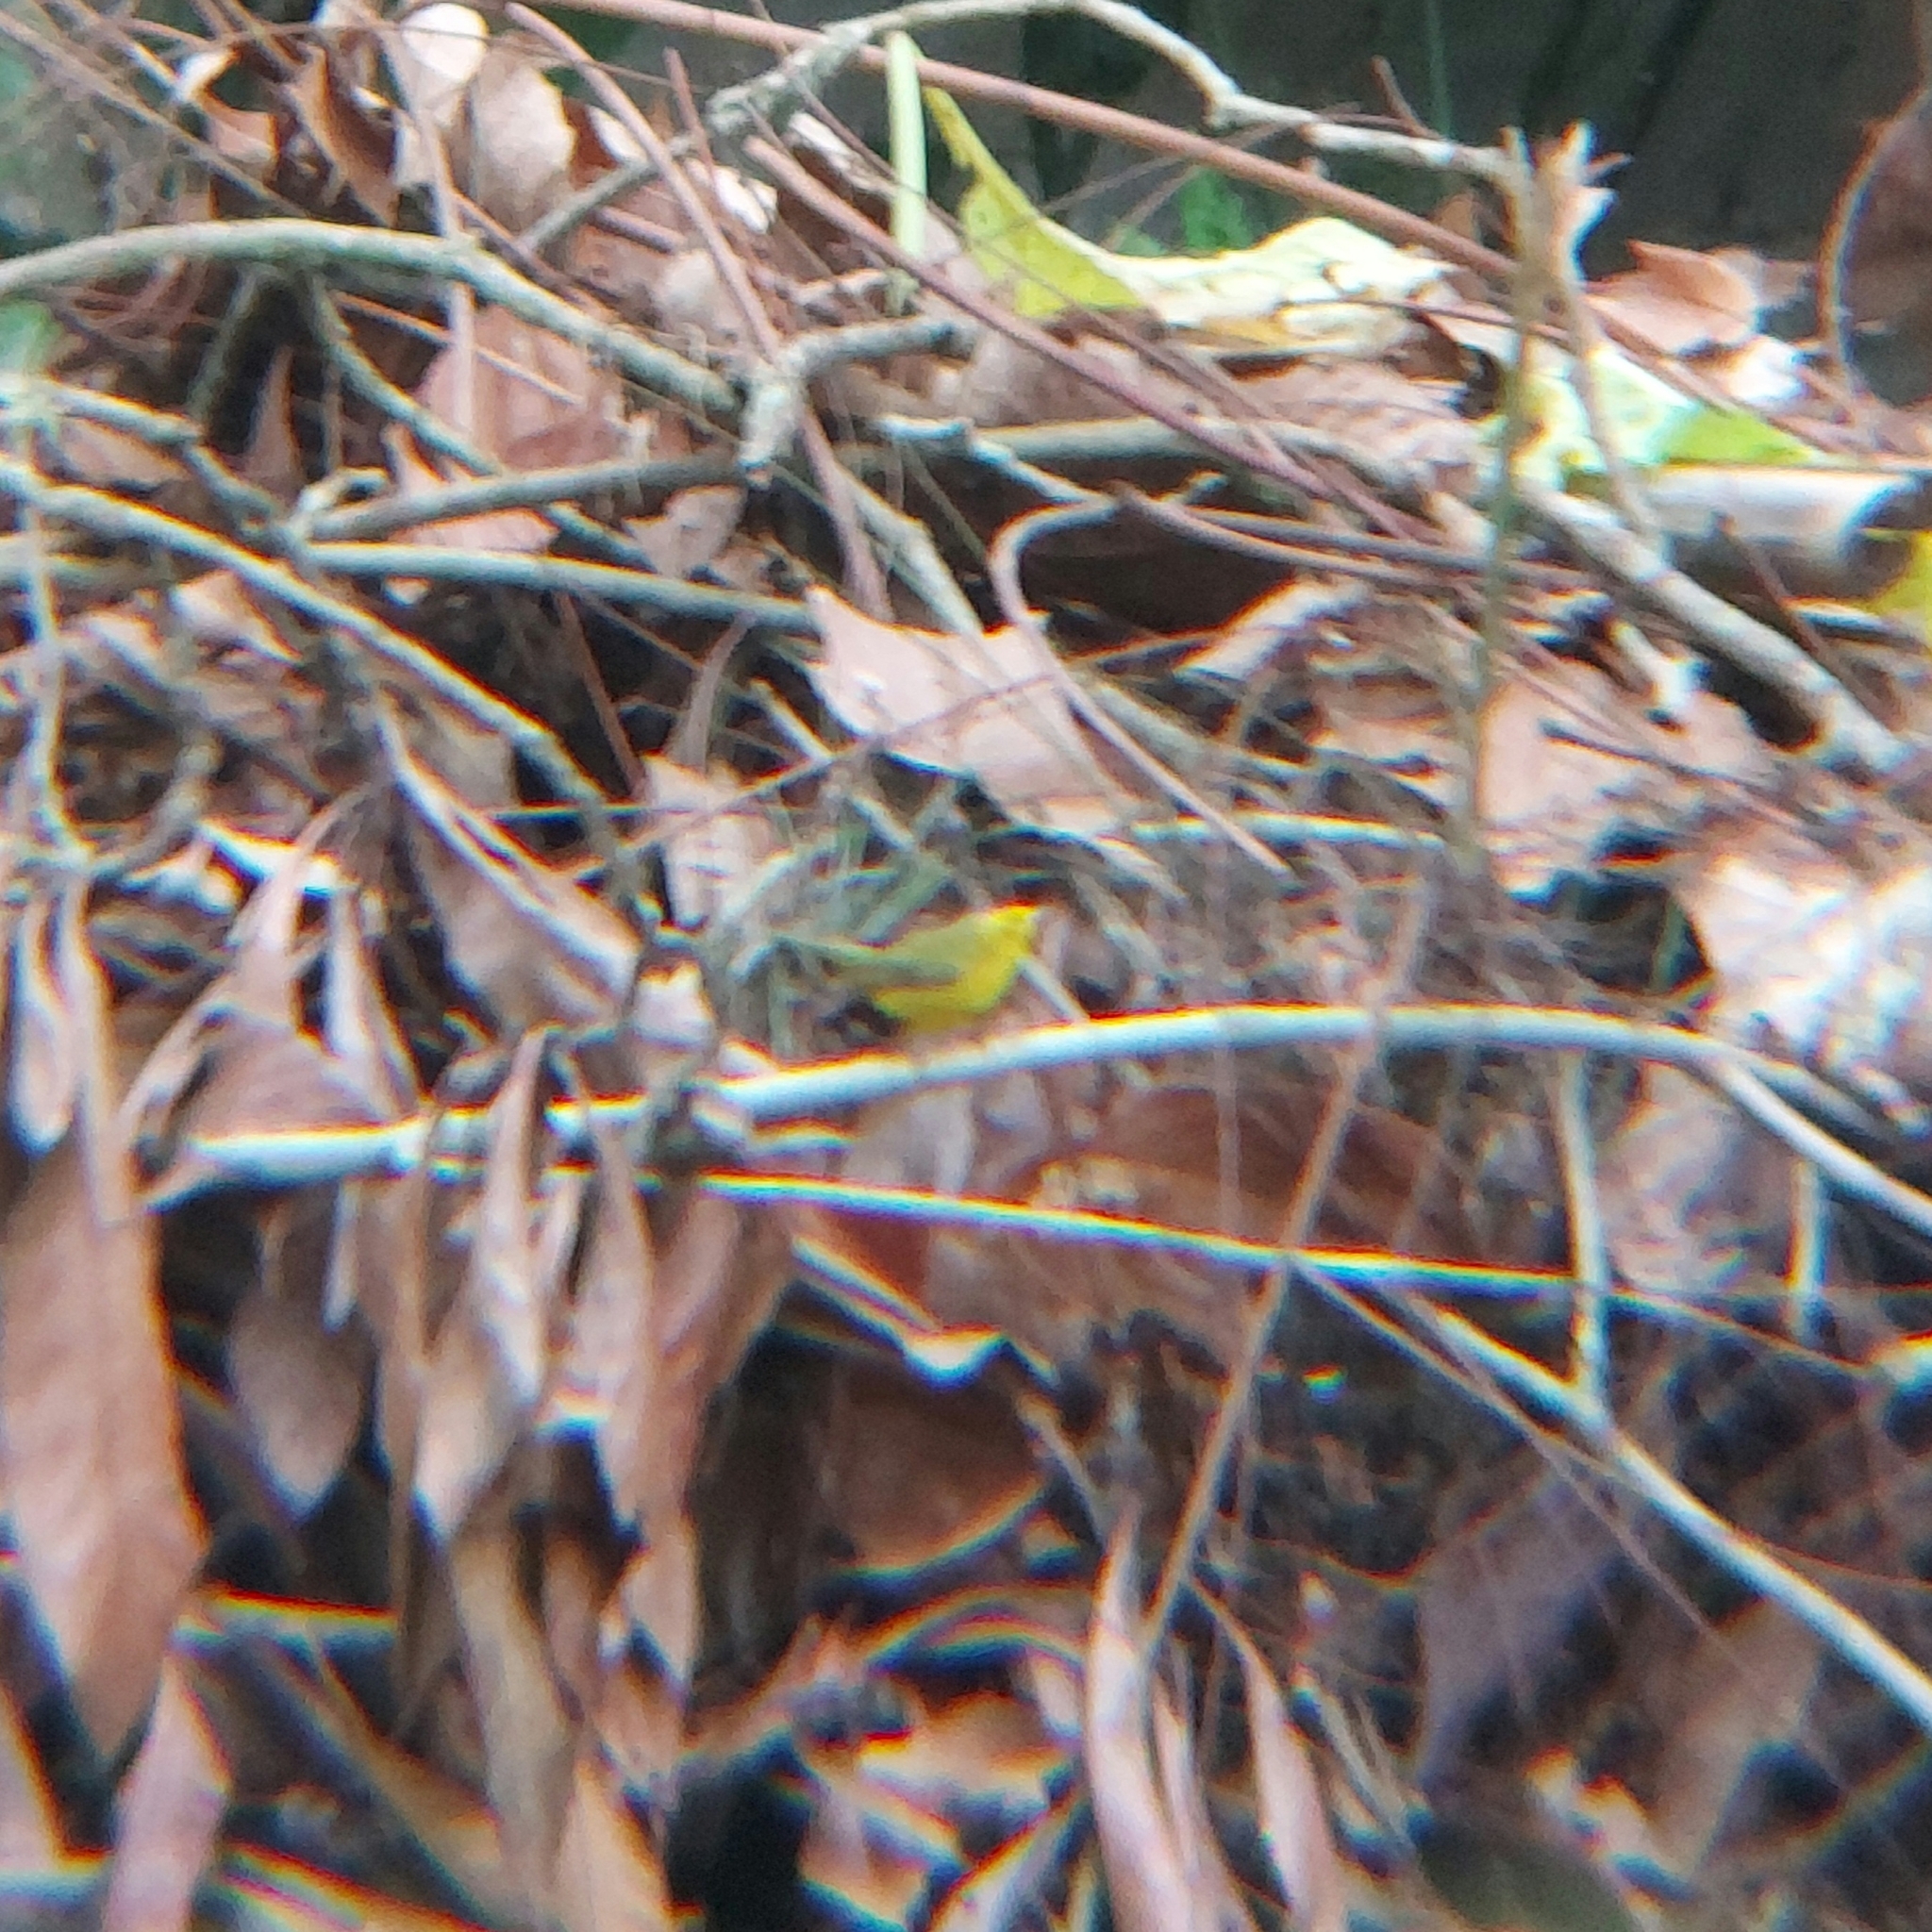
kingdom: Animalia
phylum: Chordata
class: Aves
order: Passeriformes
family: Parulidae
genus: Cardellina
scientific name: Cardellina pusilla
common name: Wilson's warbler
